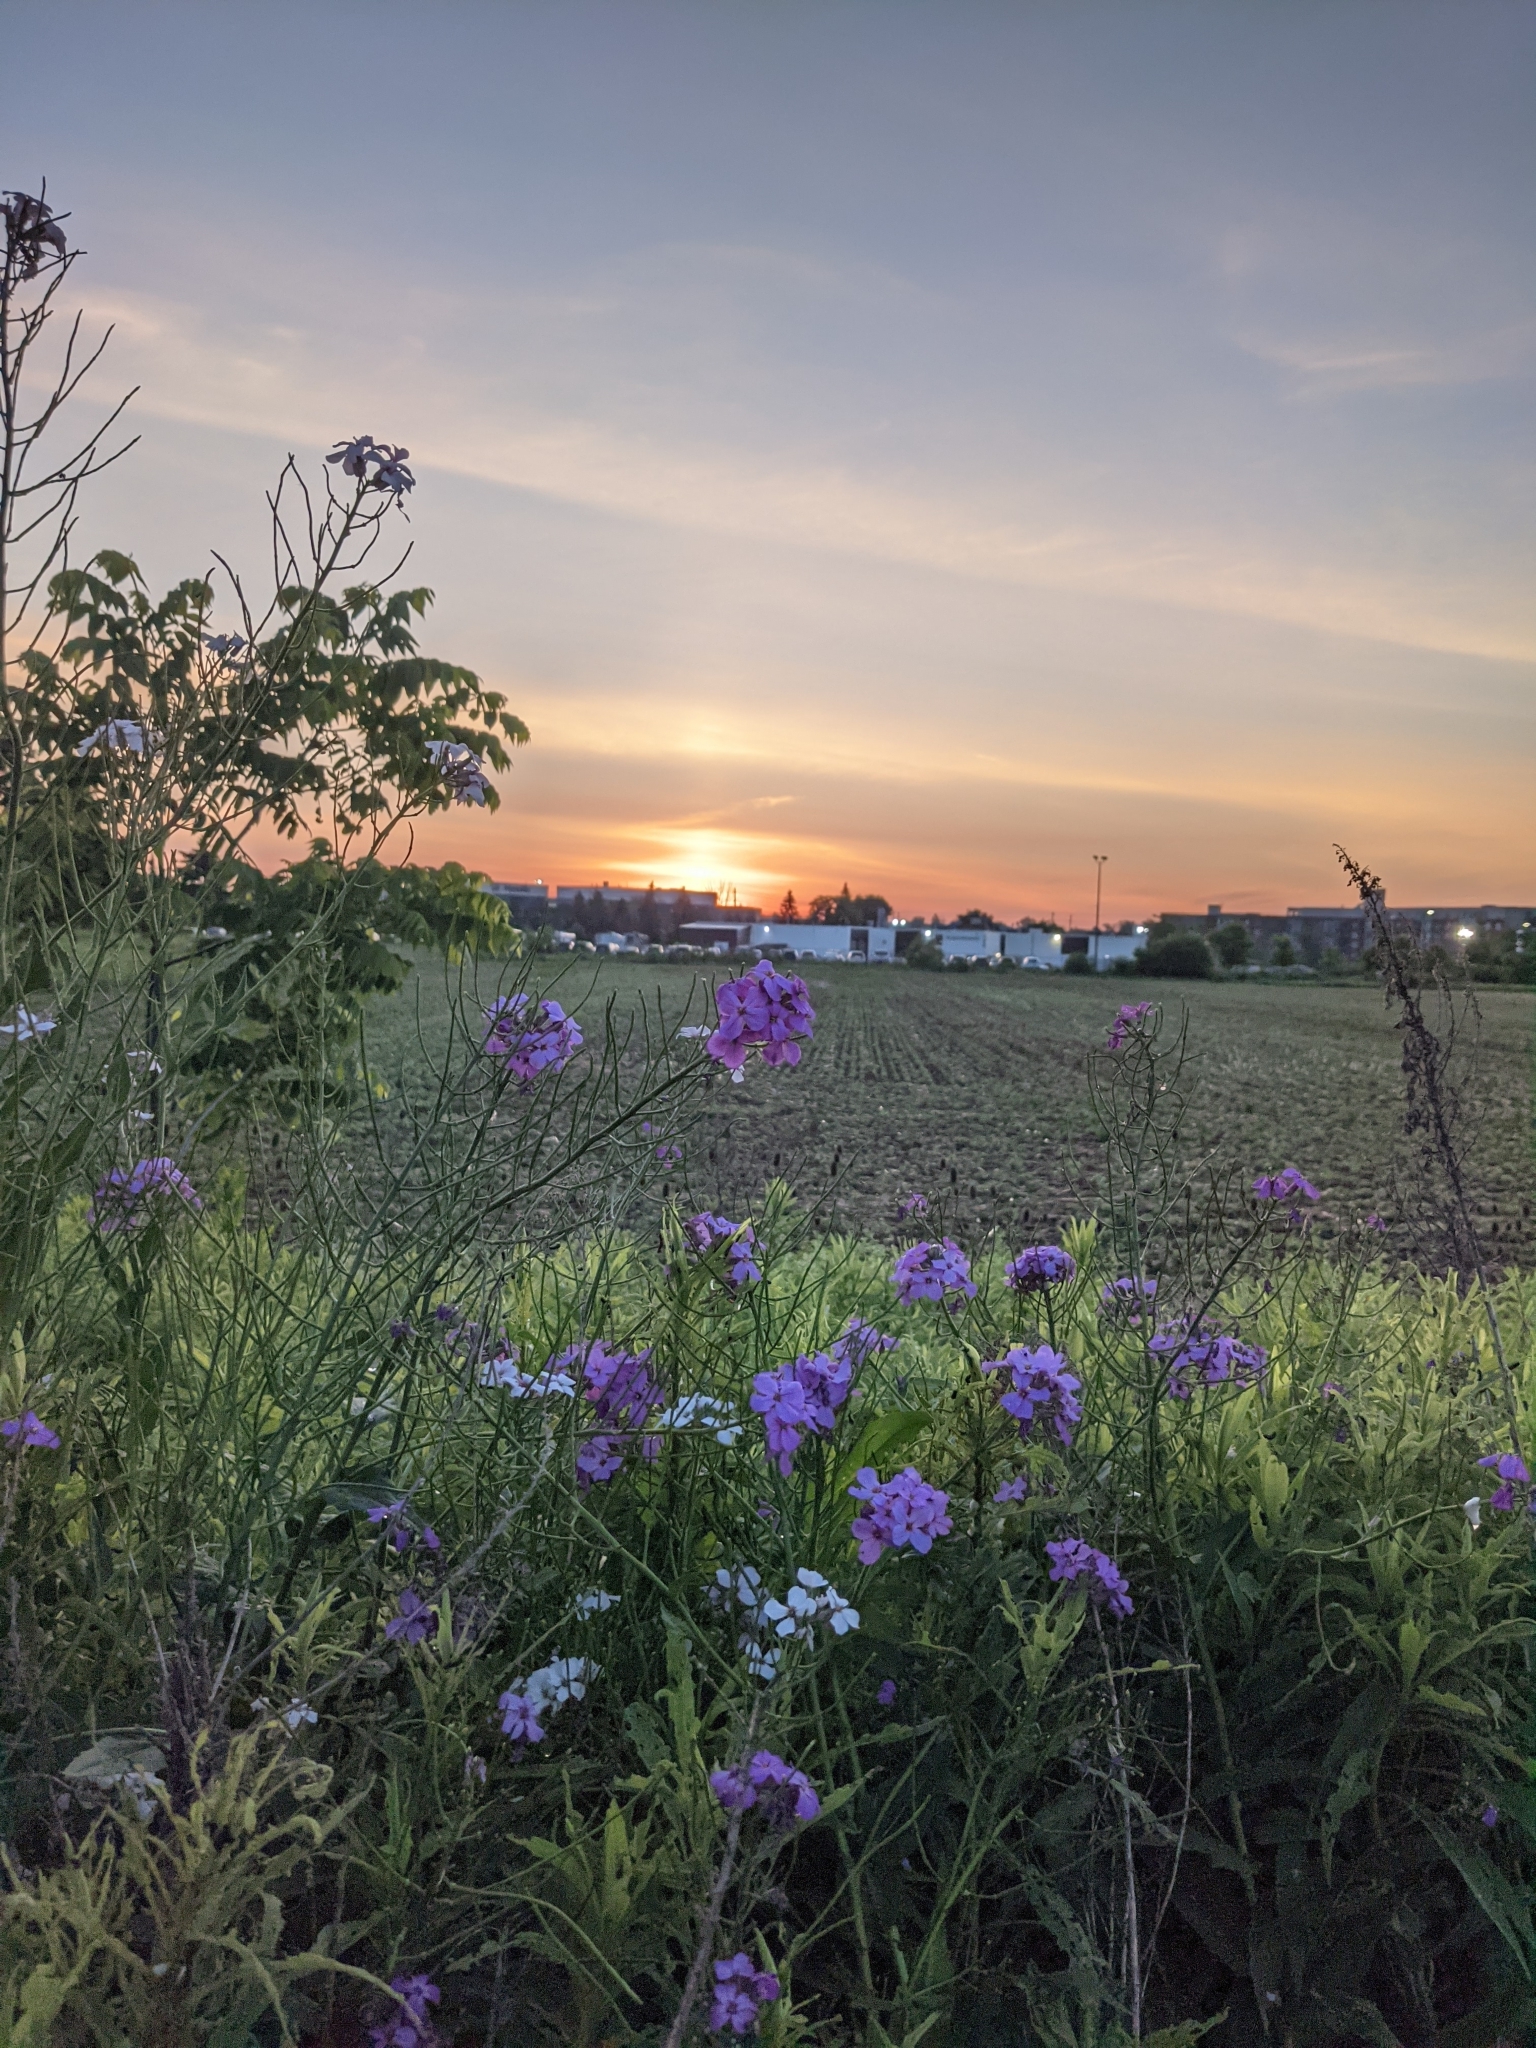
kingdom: Plantae
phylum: Tracheophyta
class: Magnoliopsida
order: Brassicales
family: Brassicaceae
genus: Hesperis
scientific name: Hesperis matronalis
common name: Dame's-violet
